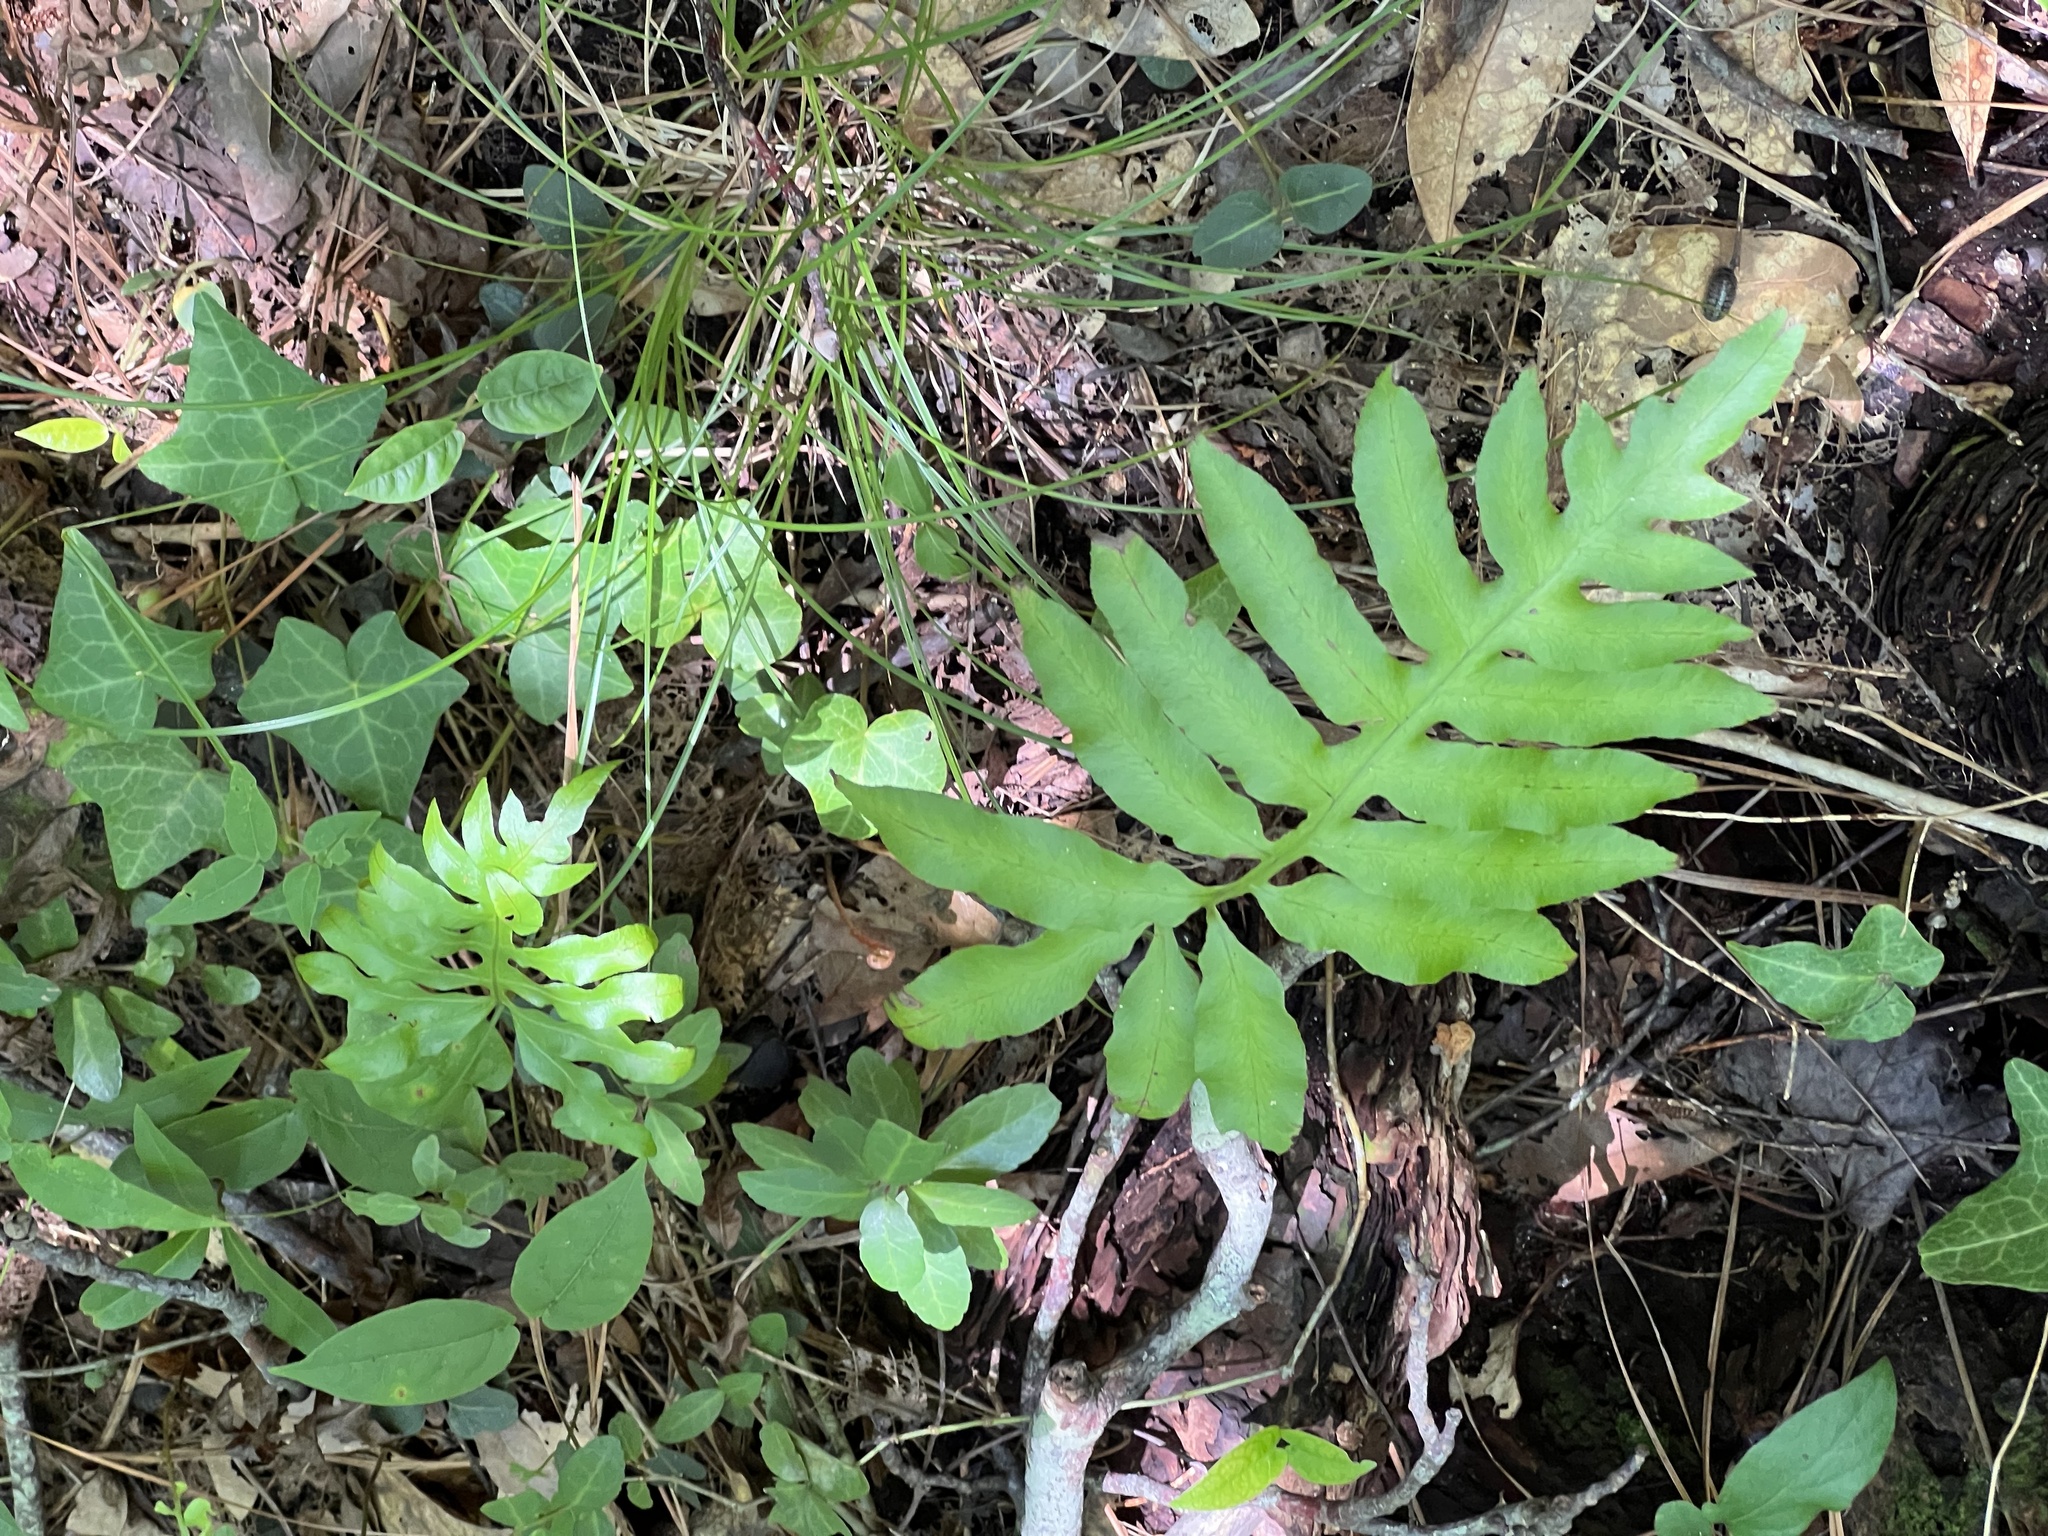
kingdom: Plantae
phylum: Tracheophyta
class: Polypodiopsida
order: Polypodiales
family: Blechnaceae
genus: Lorinseria
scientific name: Lorinseria areolata
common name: Dwarf chain fern
